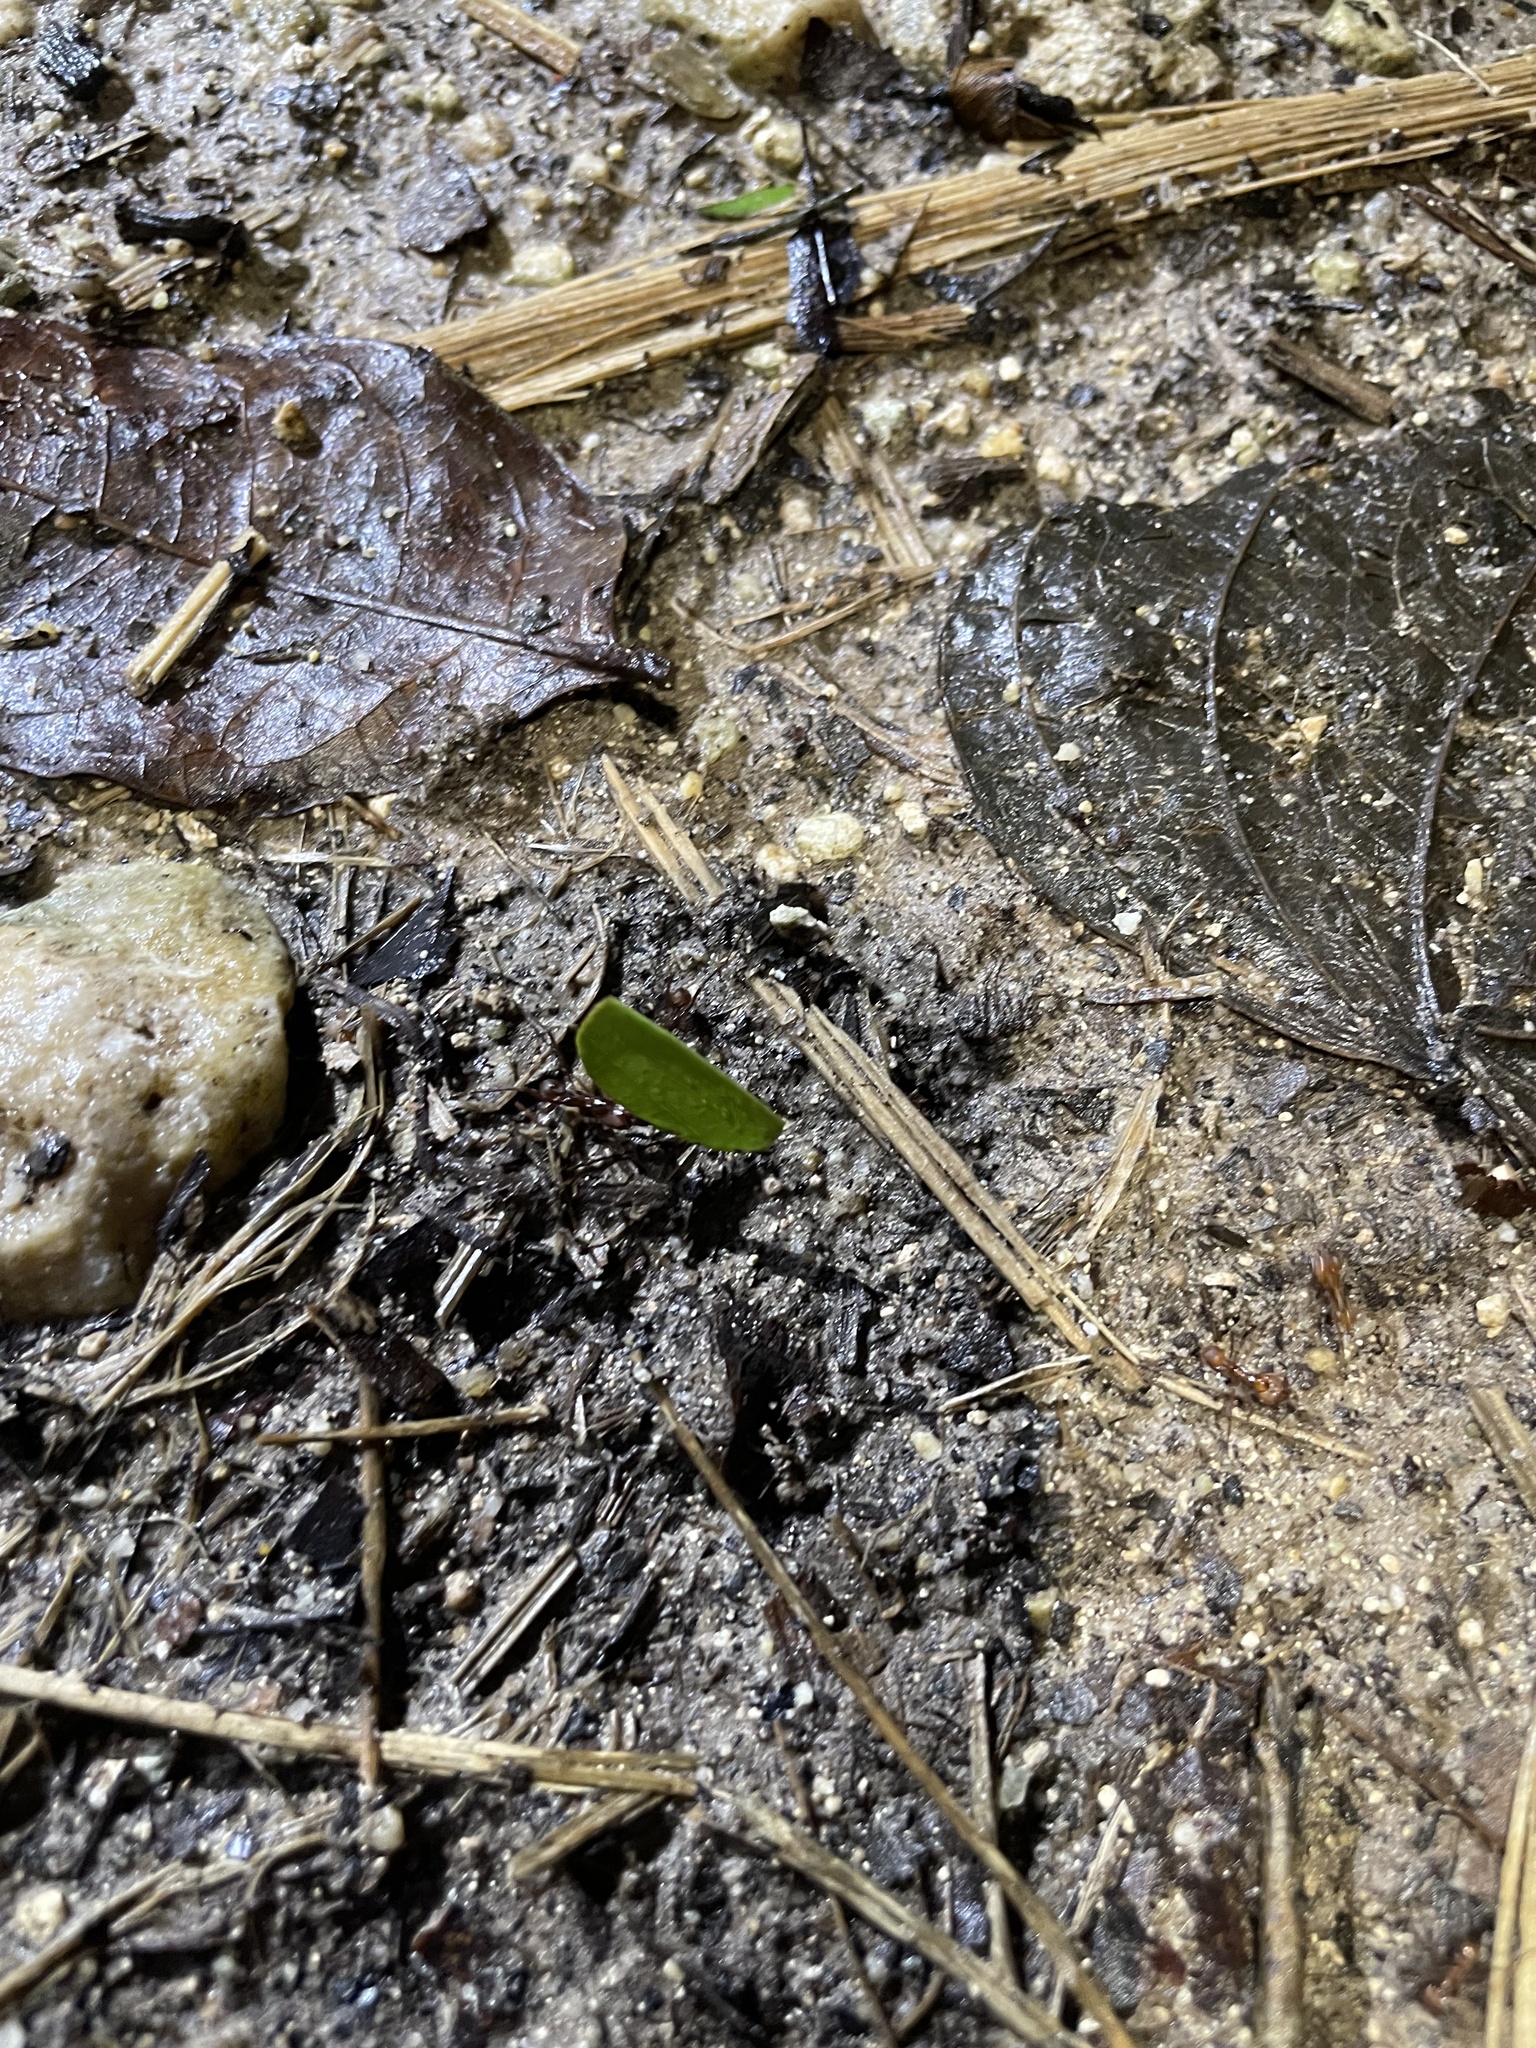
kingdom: Animalia
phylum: Arthropoda
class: Insecta
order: Hymenoptera
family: Formicidae
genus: Atta
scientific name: Atta cephalotes
